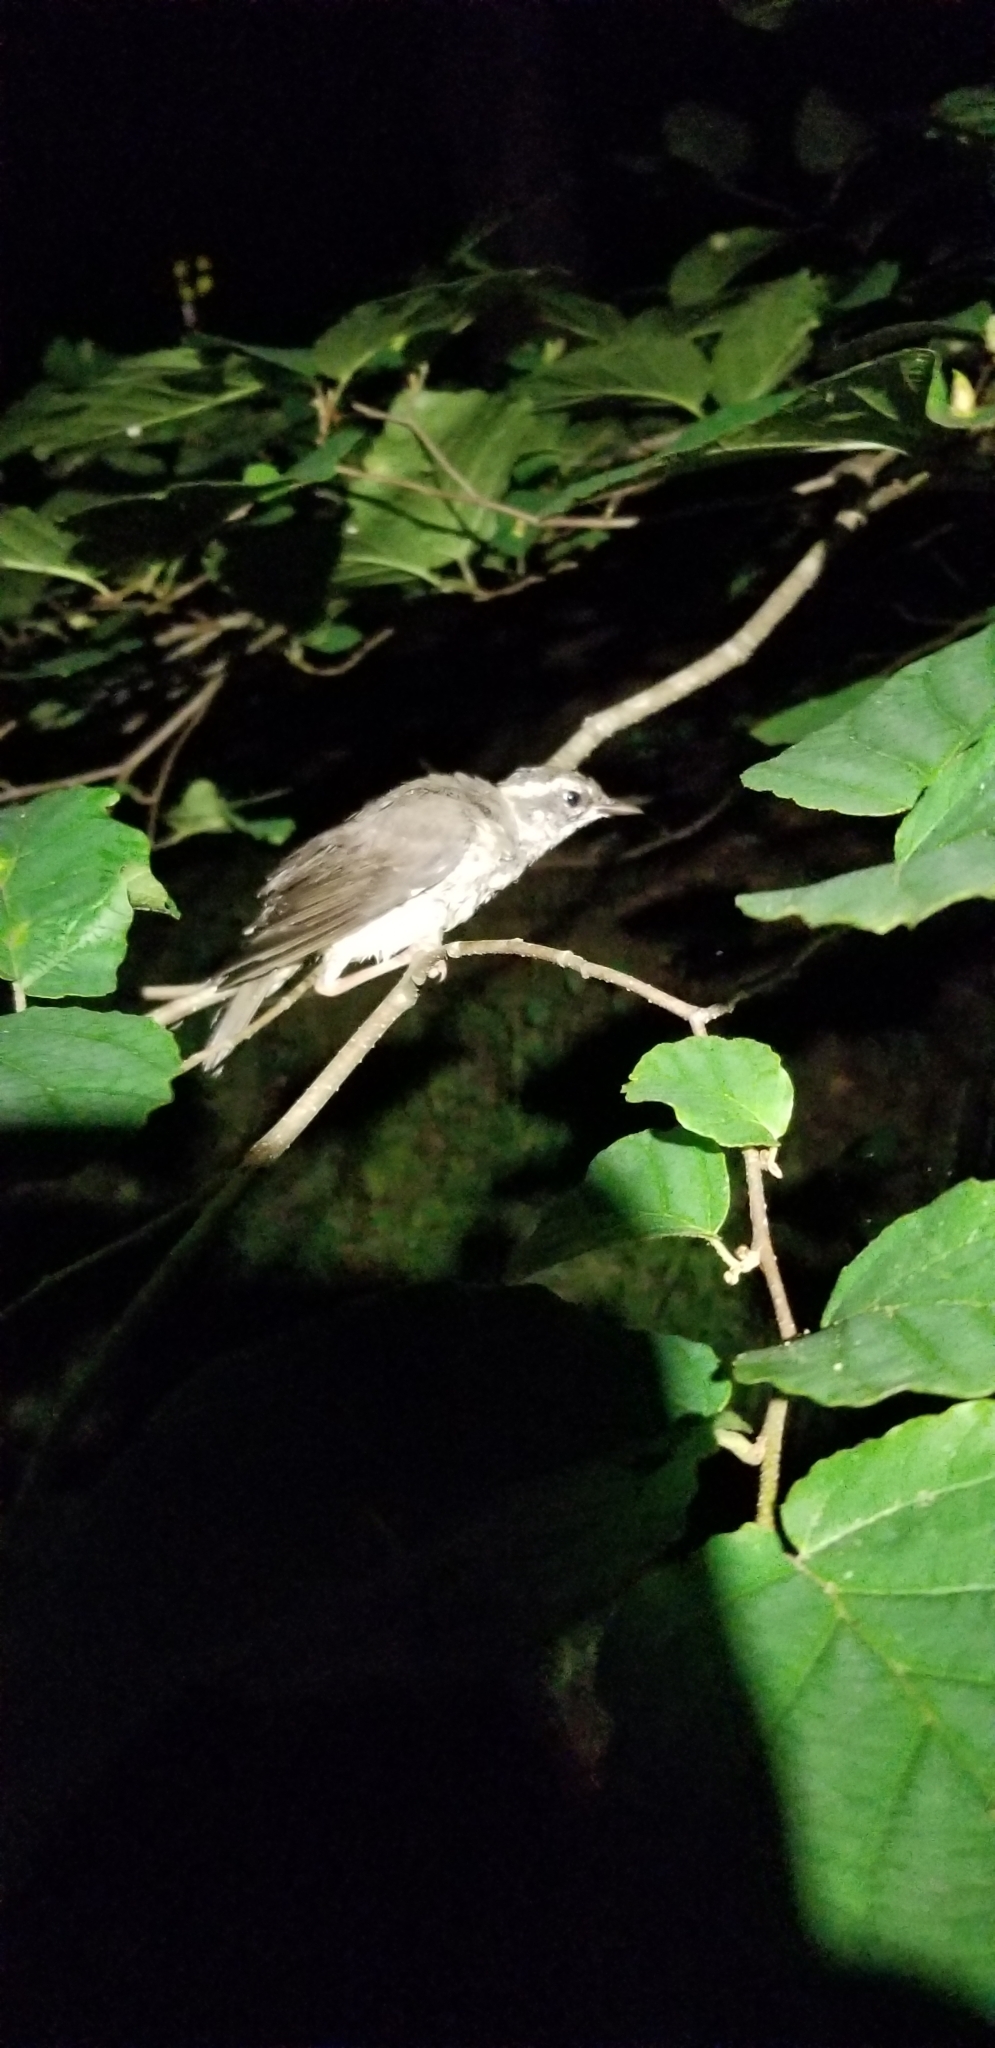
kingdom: Animalia
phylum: Chordata
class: Aves
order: Passeriformes
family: Parulidae
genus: Parkesia
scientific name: Parkesia motacilla
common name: Louisiana waterthrush
